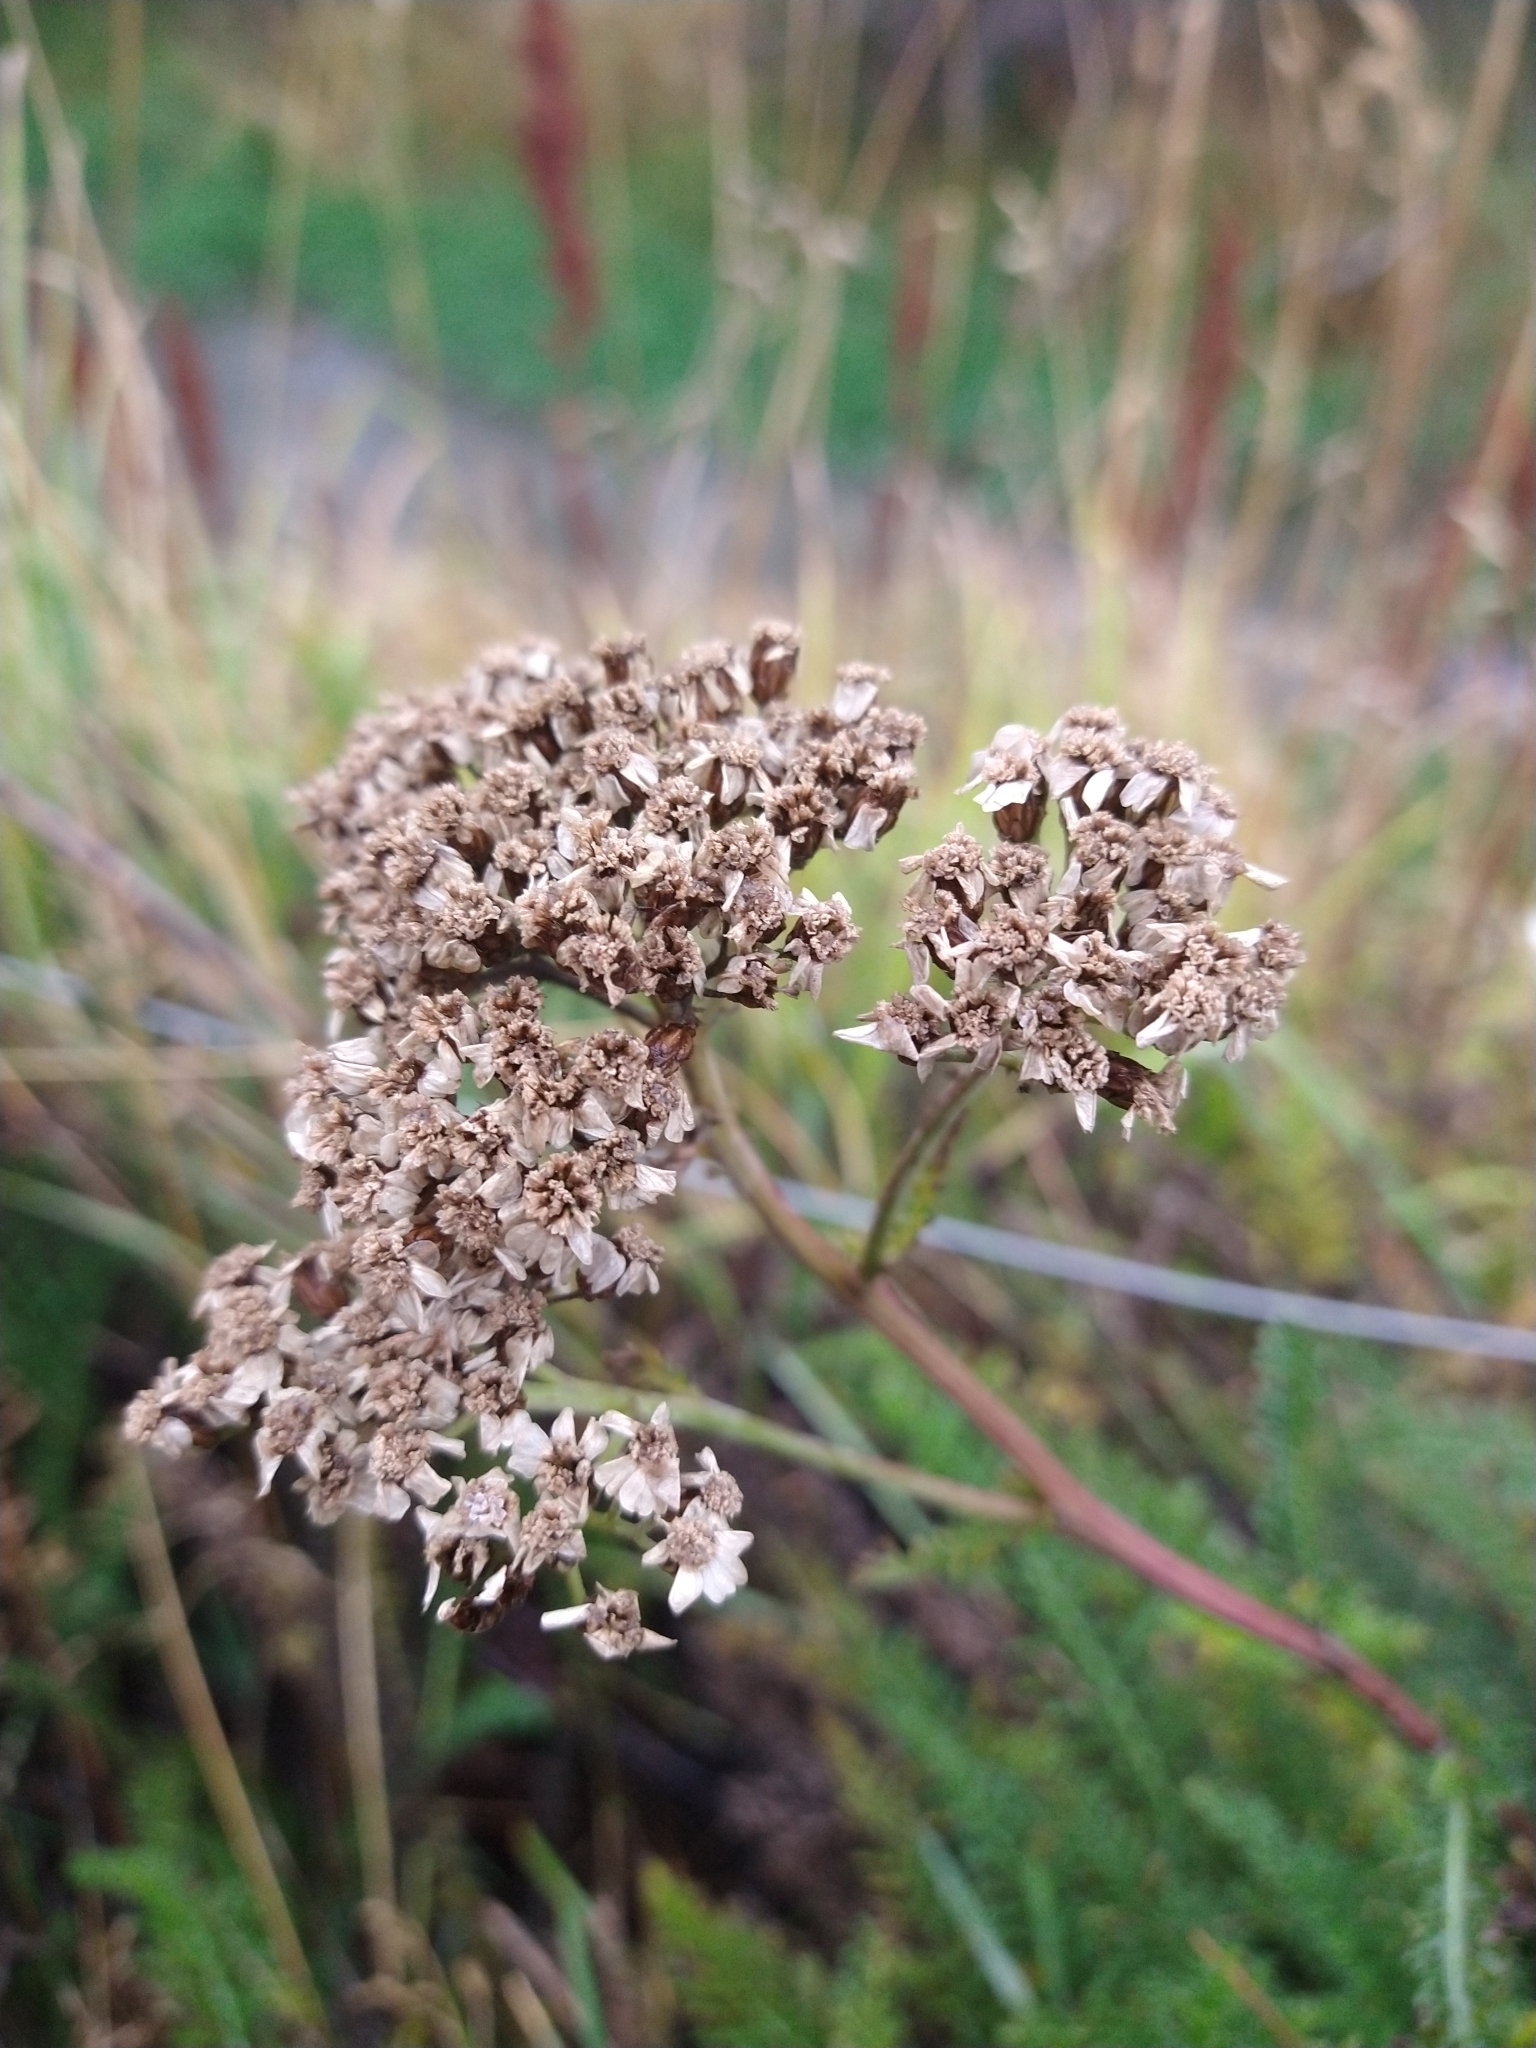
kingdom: Plantae
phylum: Tracheophyta
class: Magnoliopsida
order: Asterales
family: Asteraceae
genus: Achillea
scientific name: Achillea millefolium
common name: Yarrow
